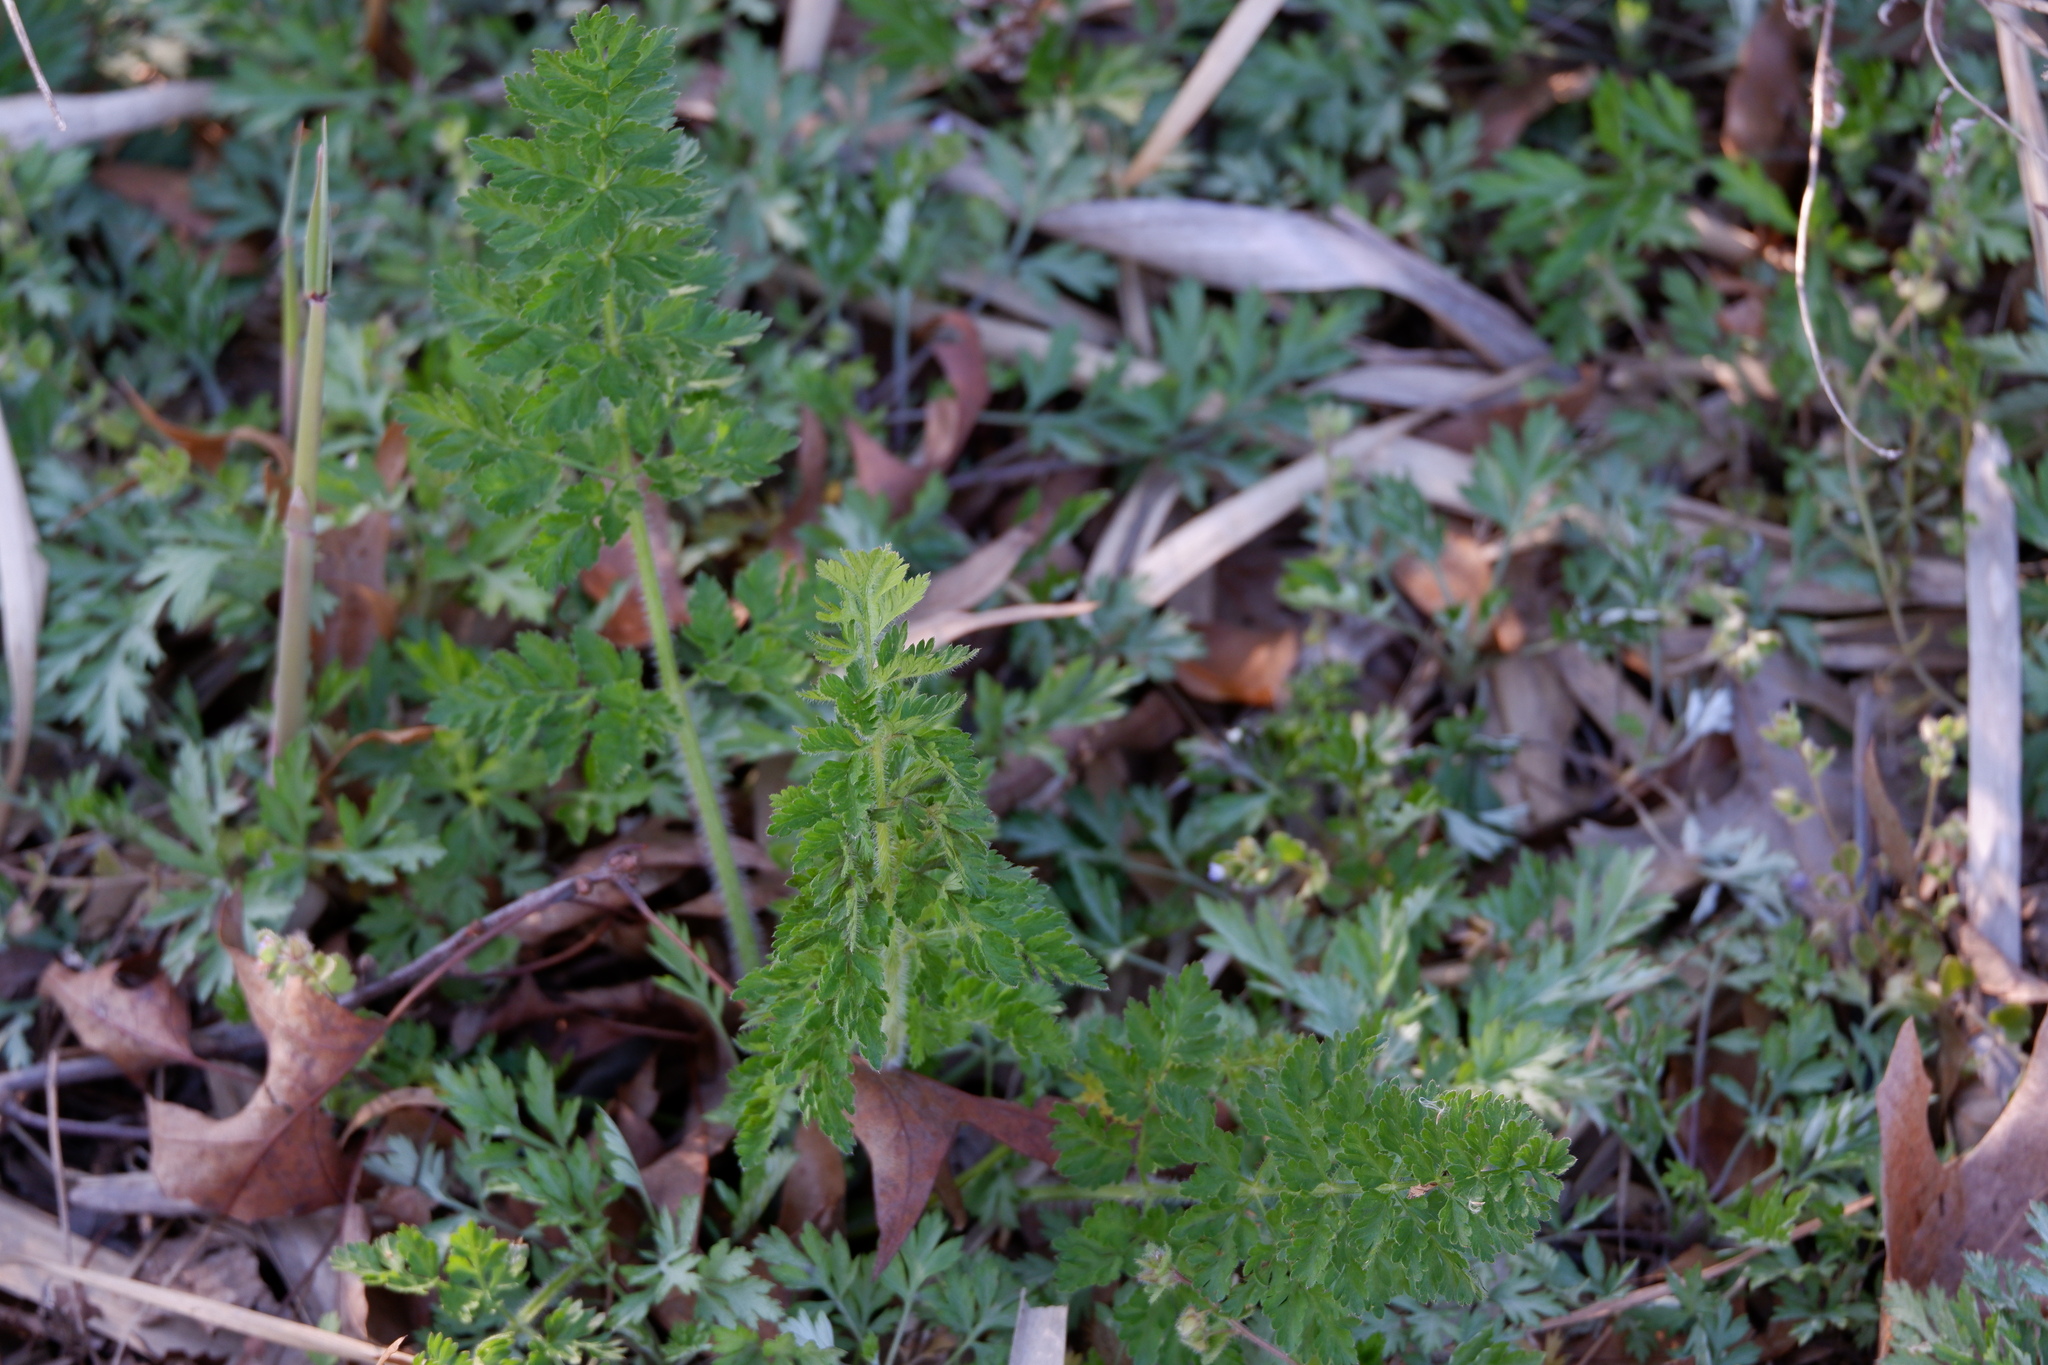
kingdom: Plantae
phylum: Tracheophyta
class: Magnoliopsida
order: Apiales
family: Apiaceae
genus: Daucus
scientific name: Daucus carota
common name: Wild carrot
